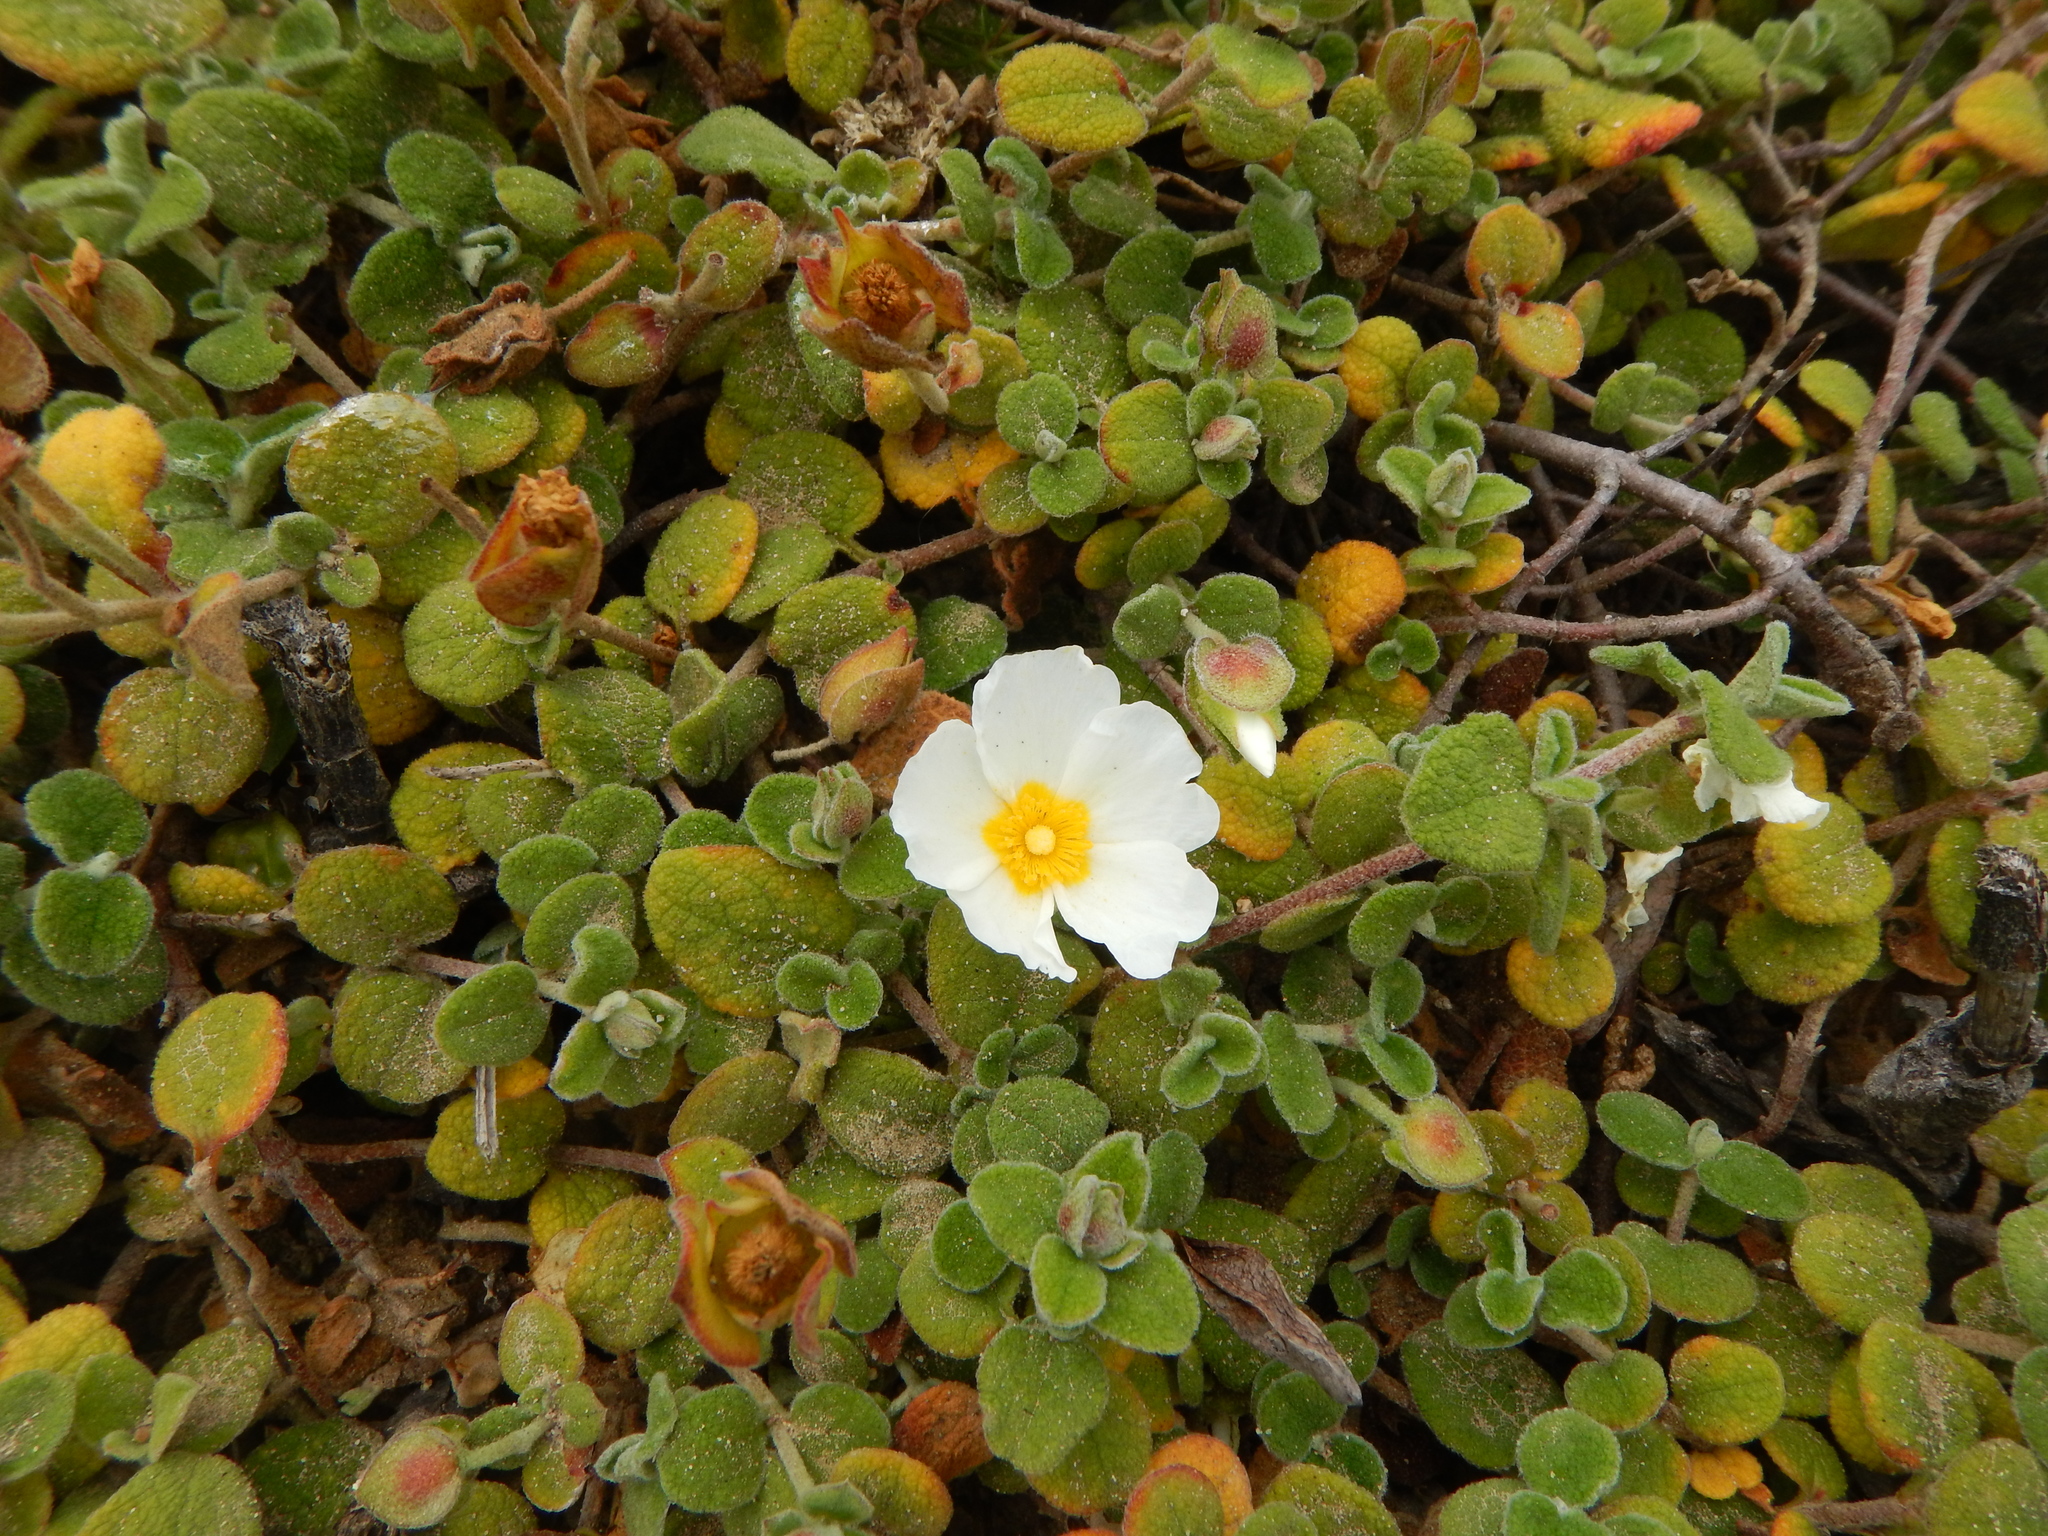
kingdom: Plantae
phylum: Tracheophyta
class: Magnoliopsida
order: Malvales
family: Cistaceae
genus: Cistus
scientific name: Cistus salviifolius
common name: Salvia cistus
